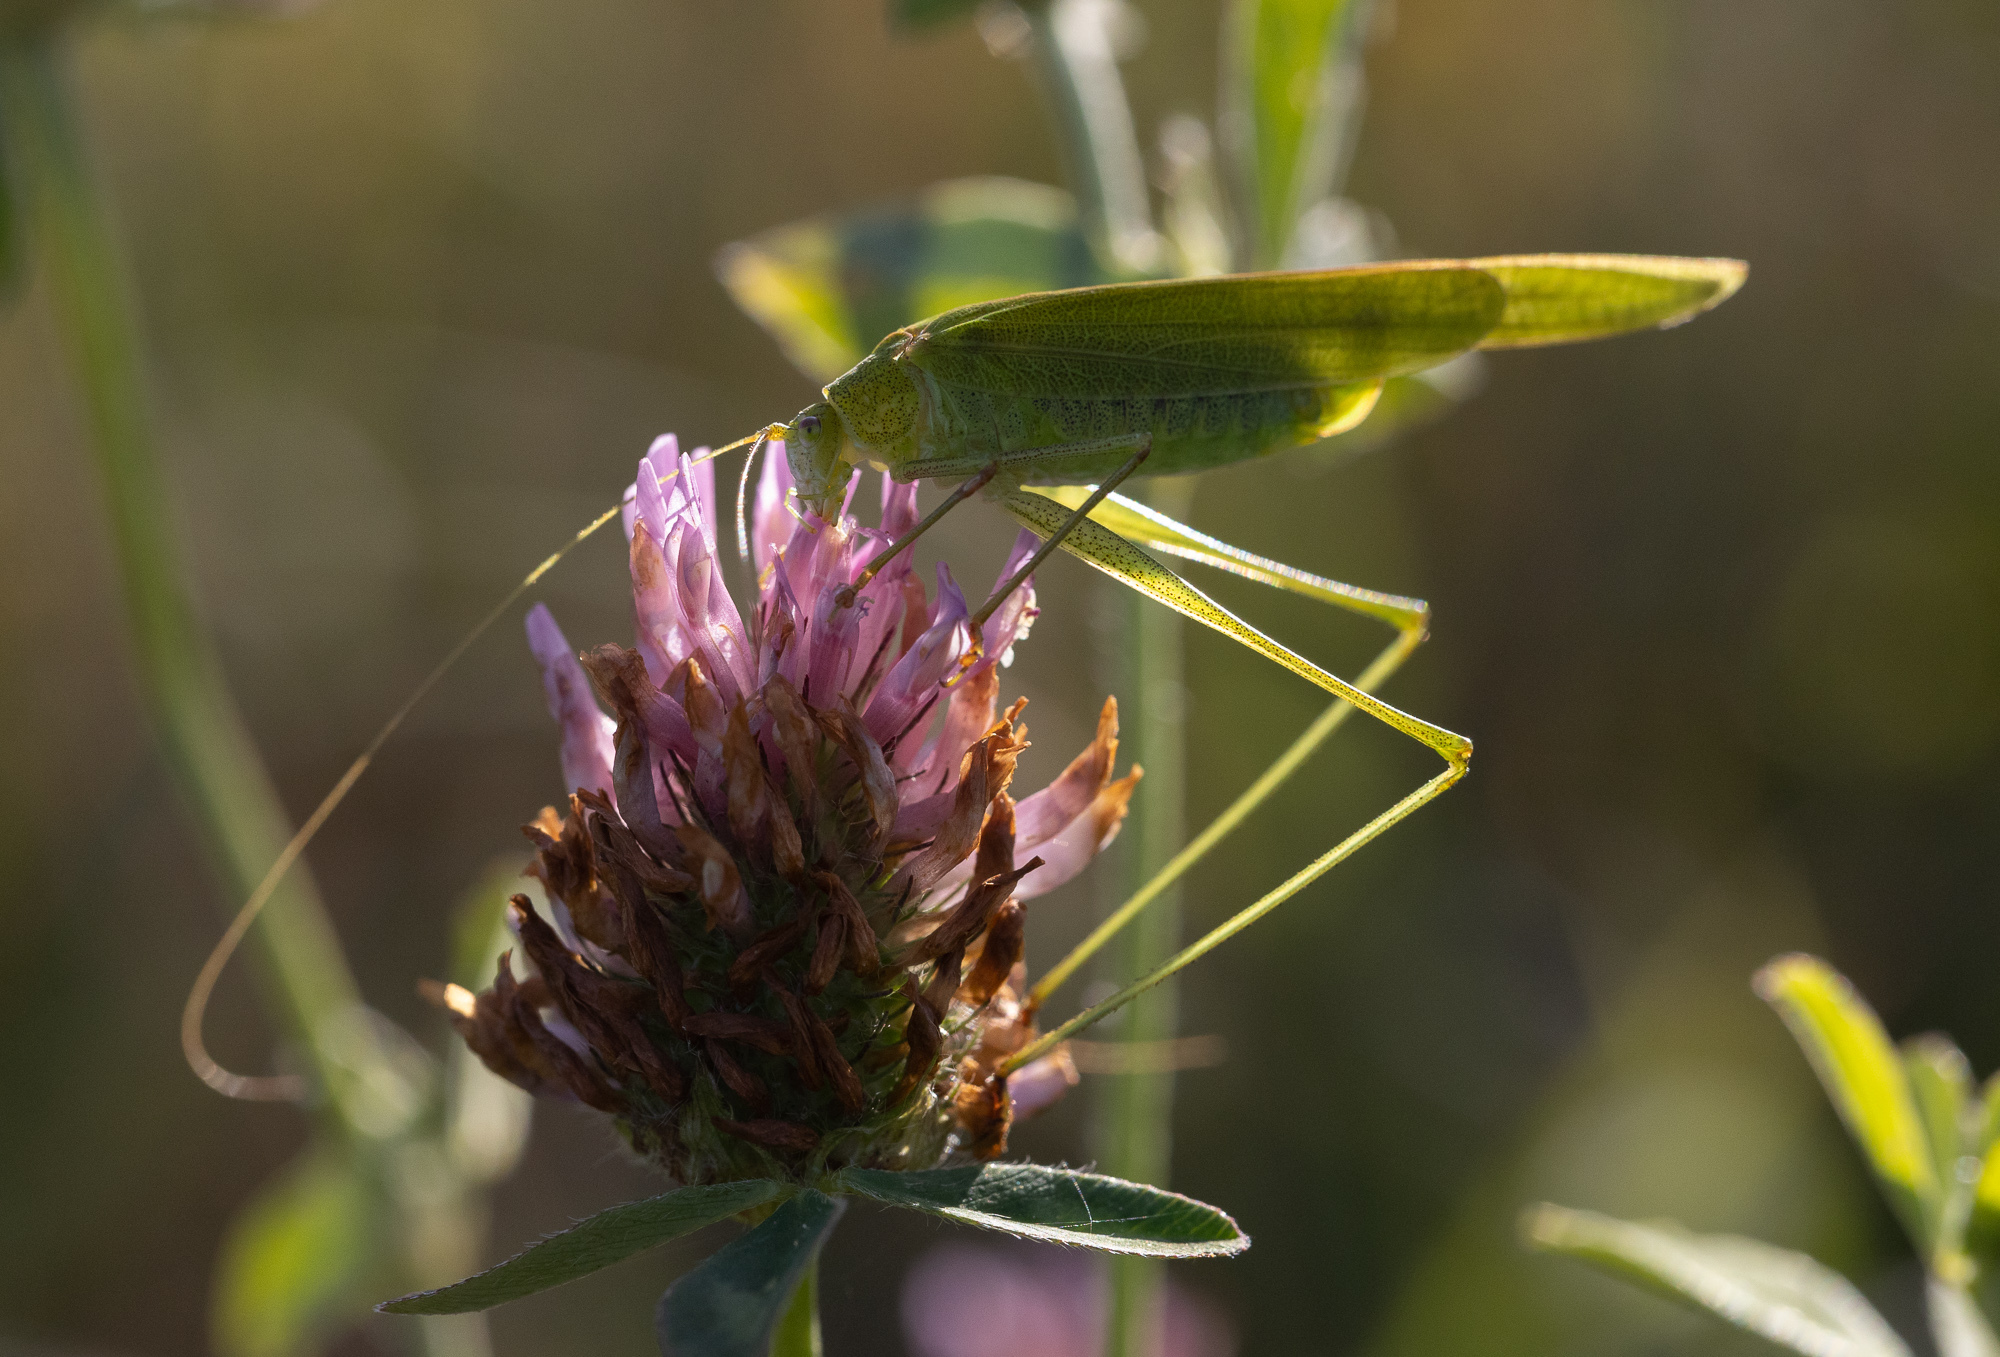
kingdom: Animalia
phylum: Arthropoda
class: Insecta
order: Orthoptera
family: Tettigoniidae
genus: Phaneroptera
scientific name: Phaneroptera falcata
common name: Sickle-bearing bush-cricket
